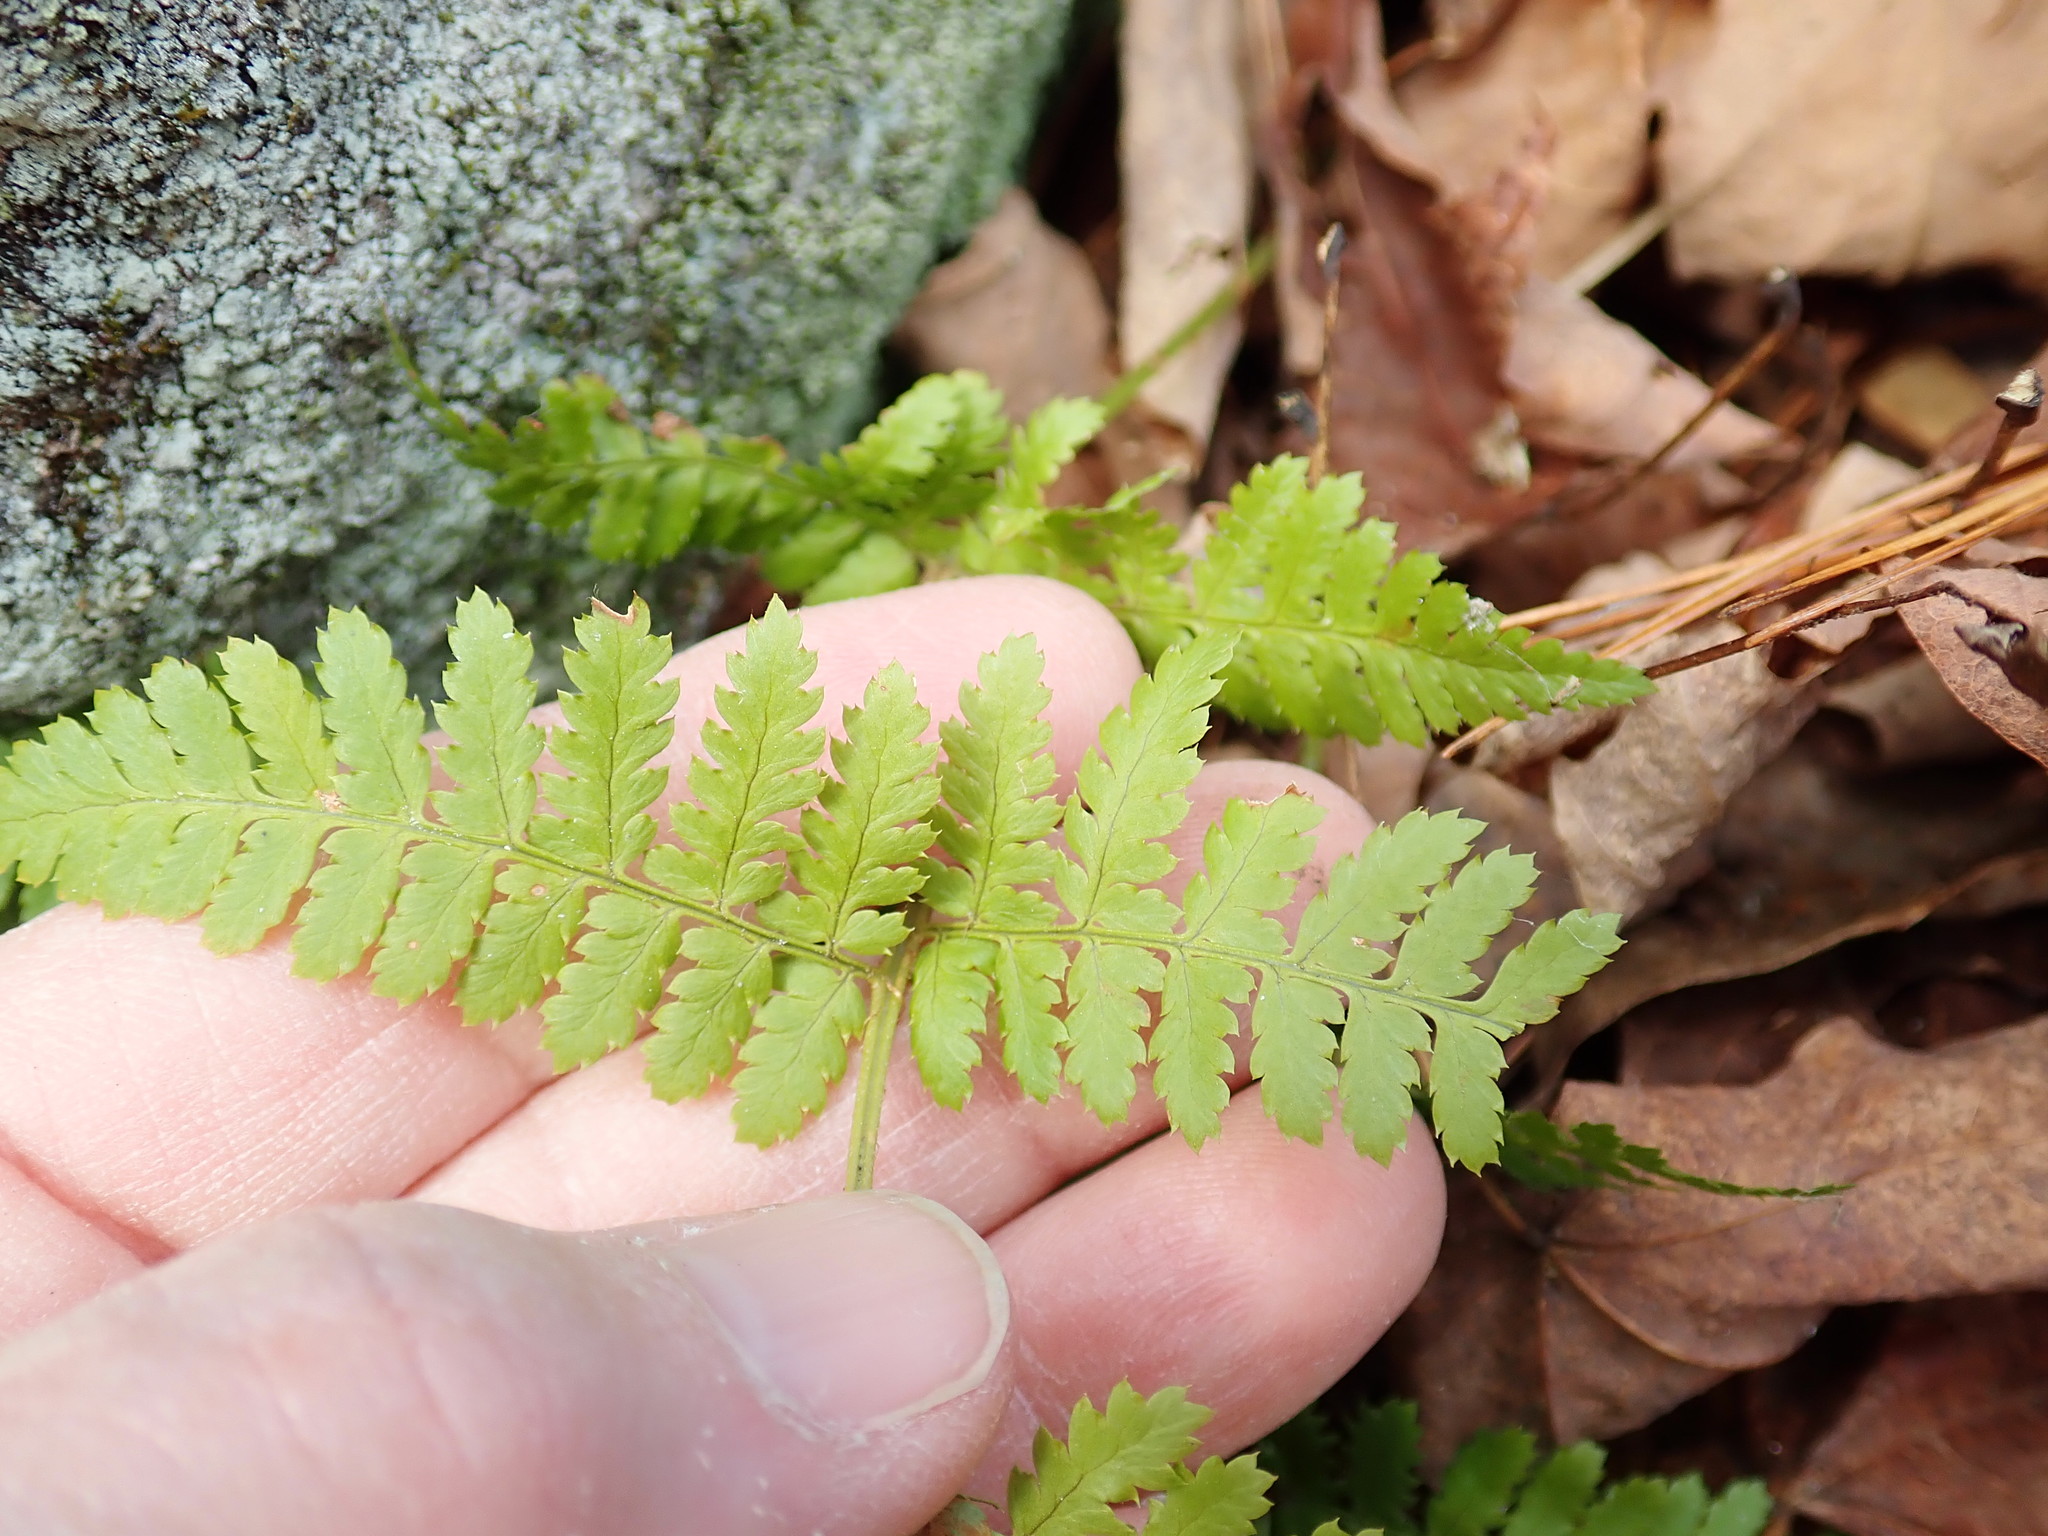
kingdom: Plantae
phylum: Tracheophyta
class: Polypodiopsida
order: Polypodiales
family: Dryopteridaceae
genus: Dryopteris
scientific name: Dryopteris intermedia
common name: Evergreen wood fern
